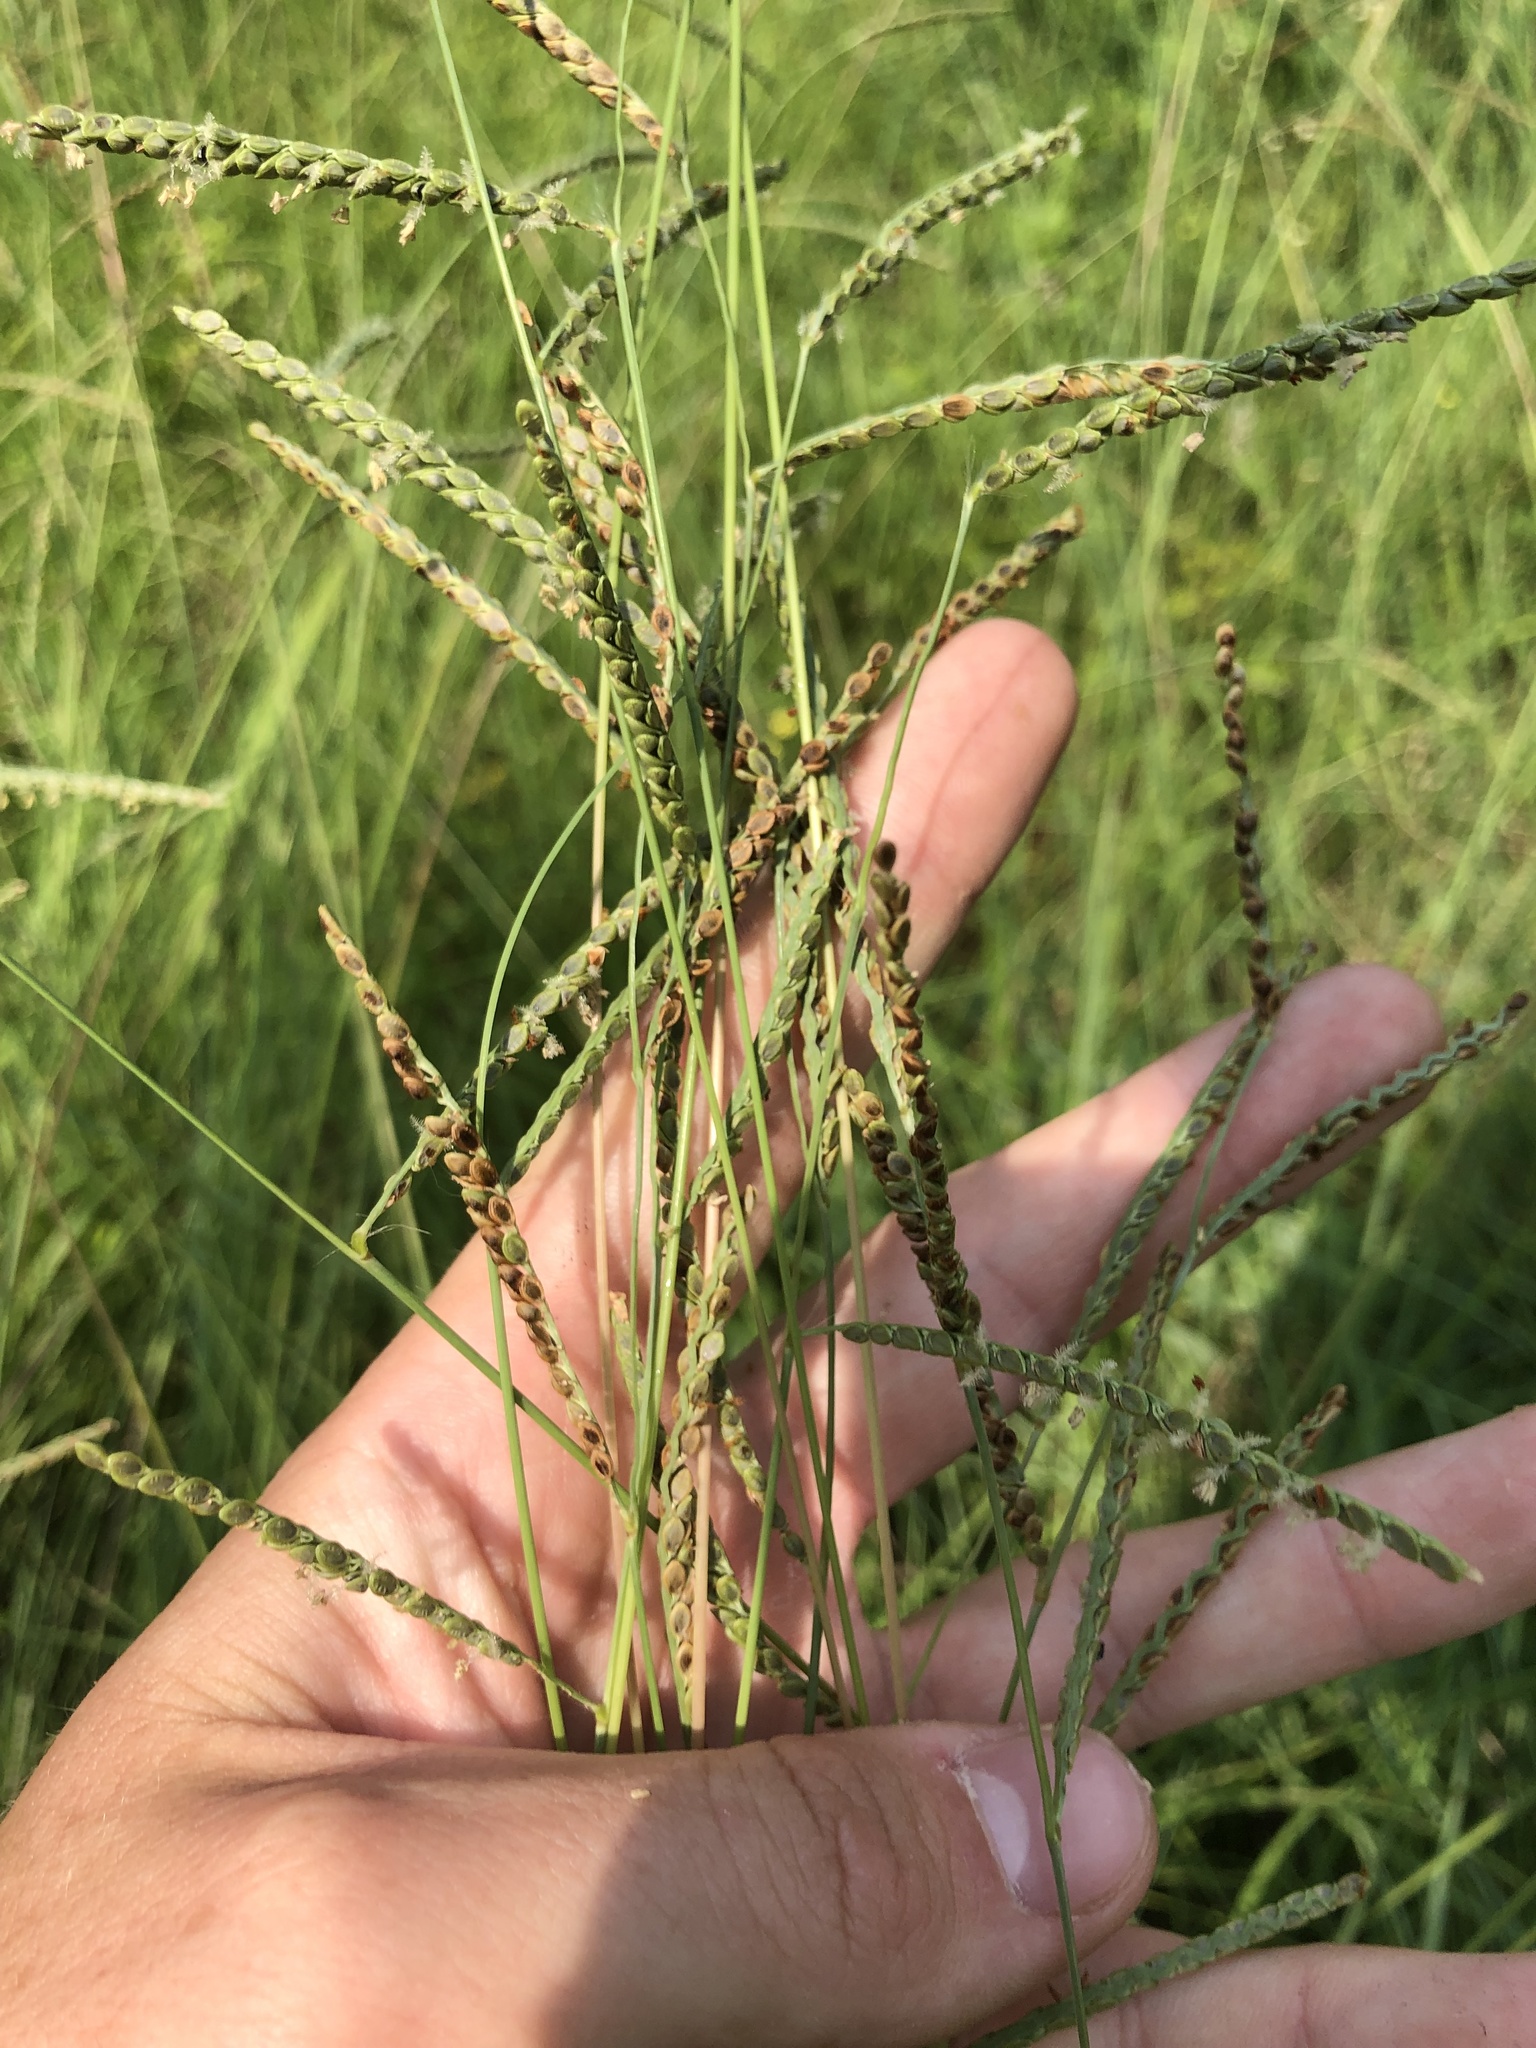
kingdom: Plantae
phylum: Tracheophyta
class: Liliopsida
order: Poales
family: Poaceae
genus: Paspalum
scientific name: Paspalum plicatulum
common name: Top paspalum
